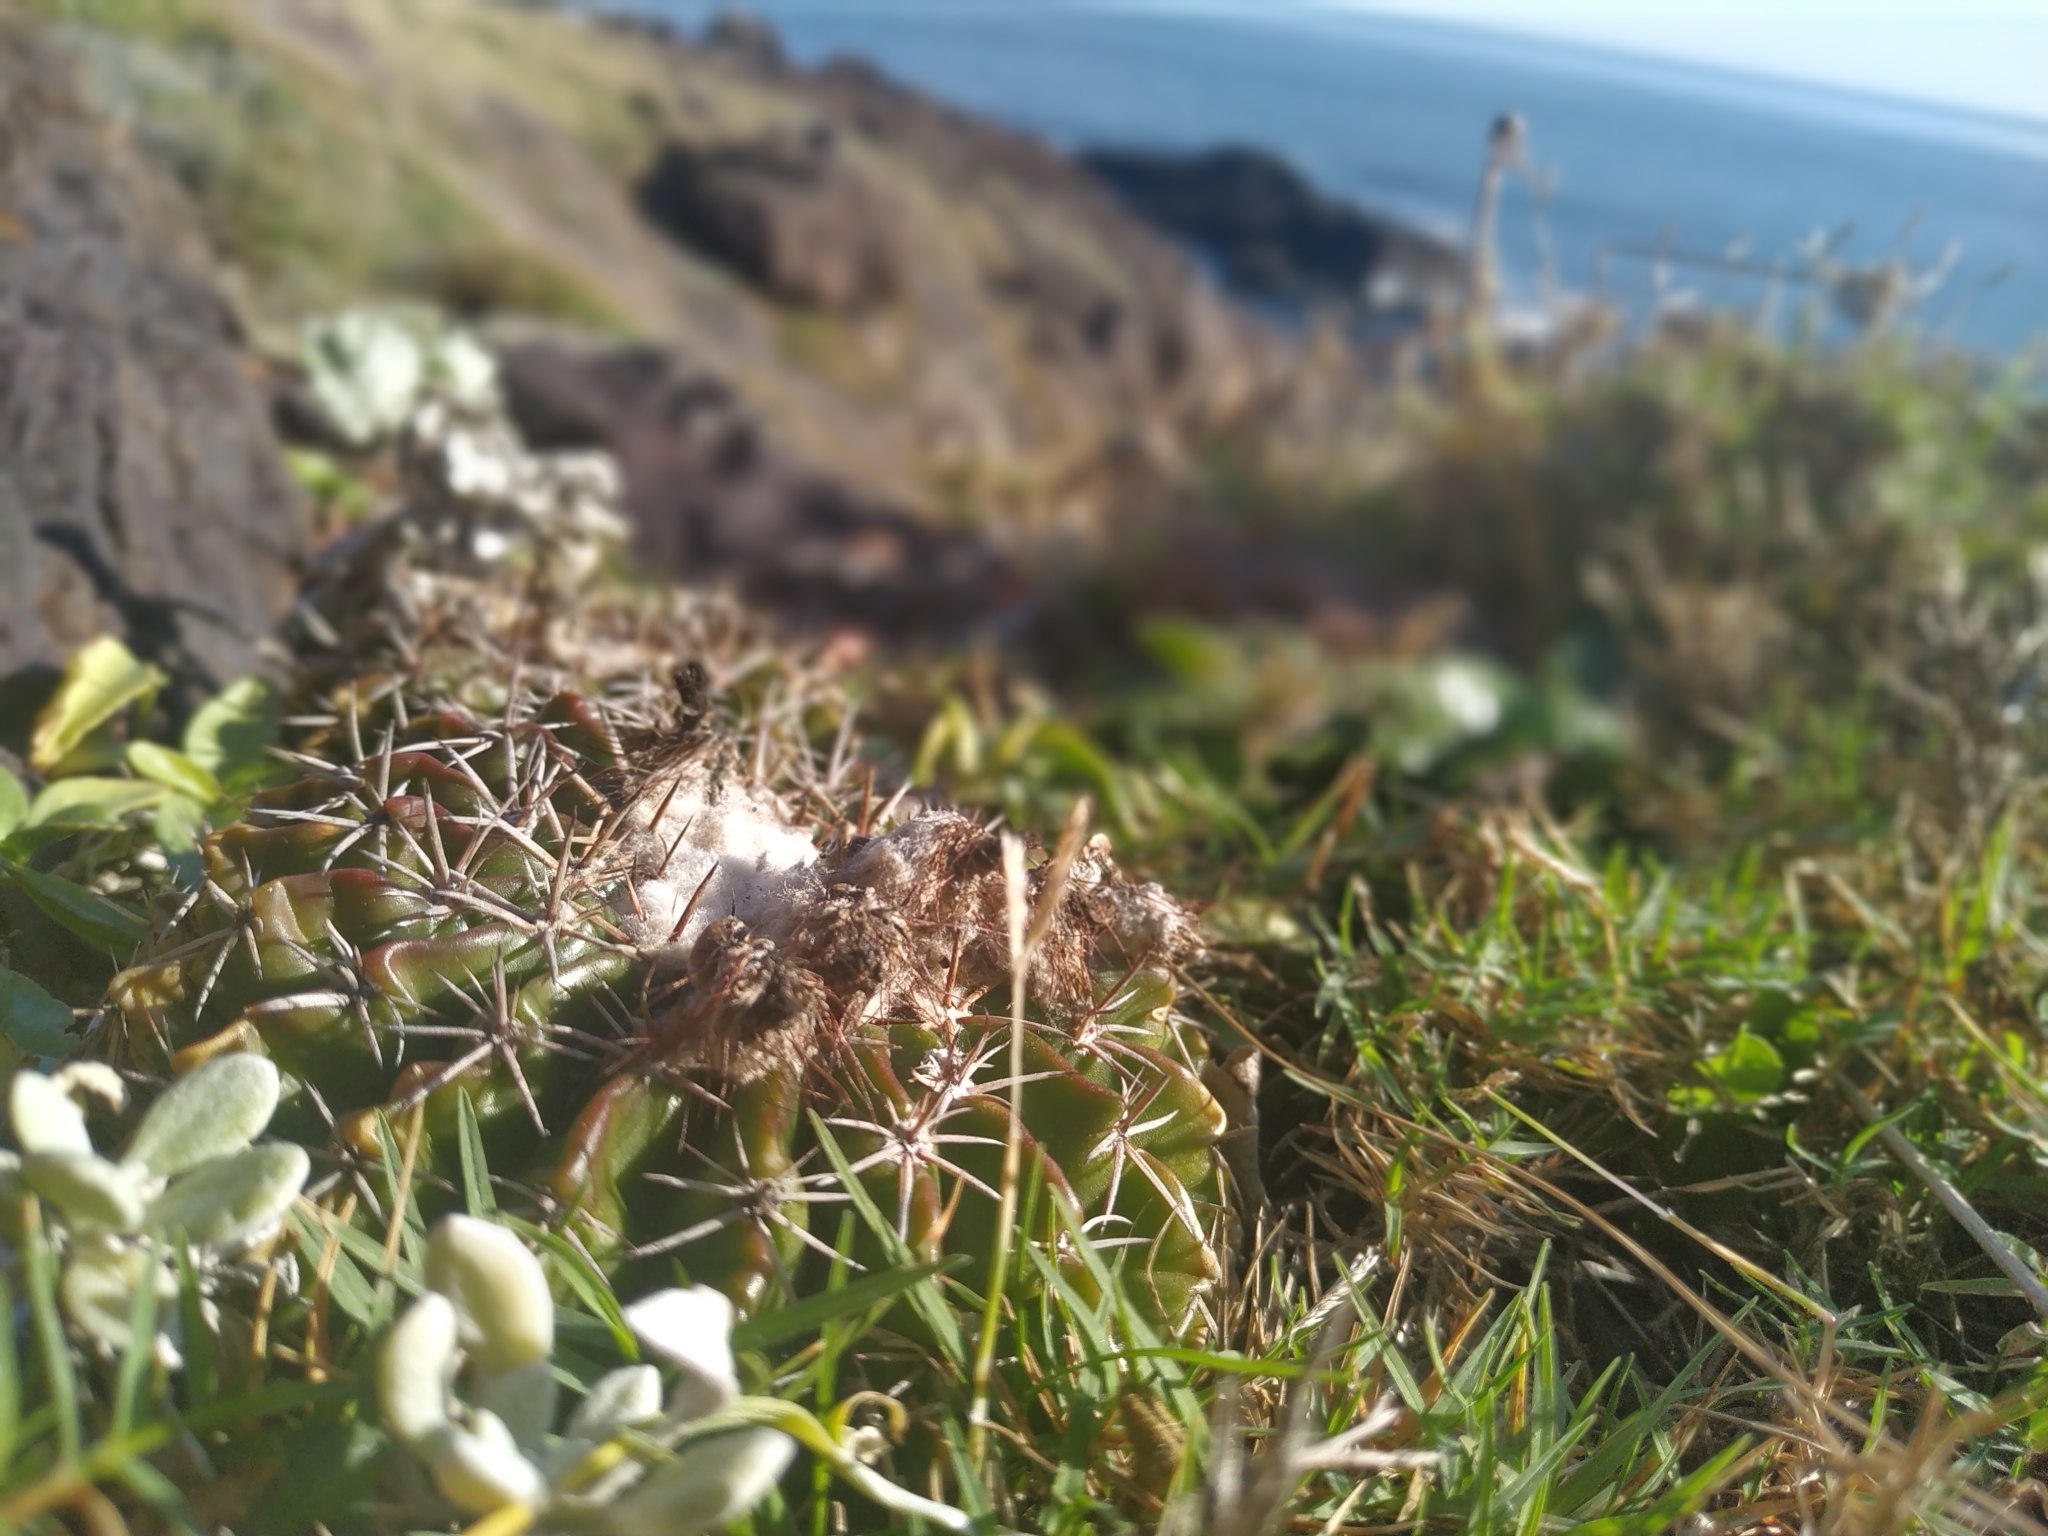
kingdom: Plantae
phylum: Tracheophyta
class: Magnoliopsida
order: Caryophyllales
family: Cactaceae
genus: Parodia
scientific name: Parodia erinacea
